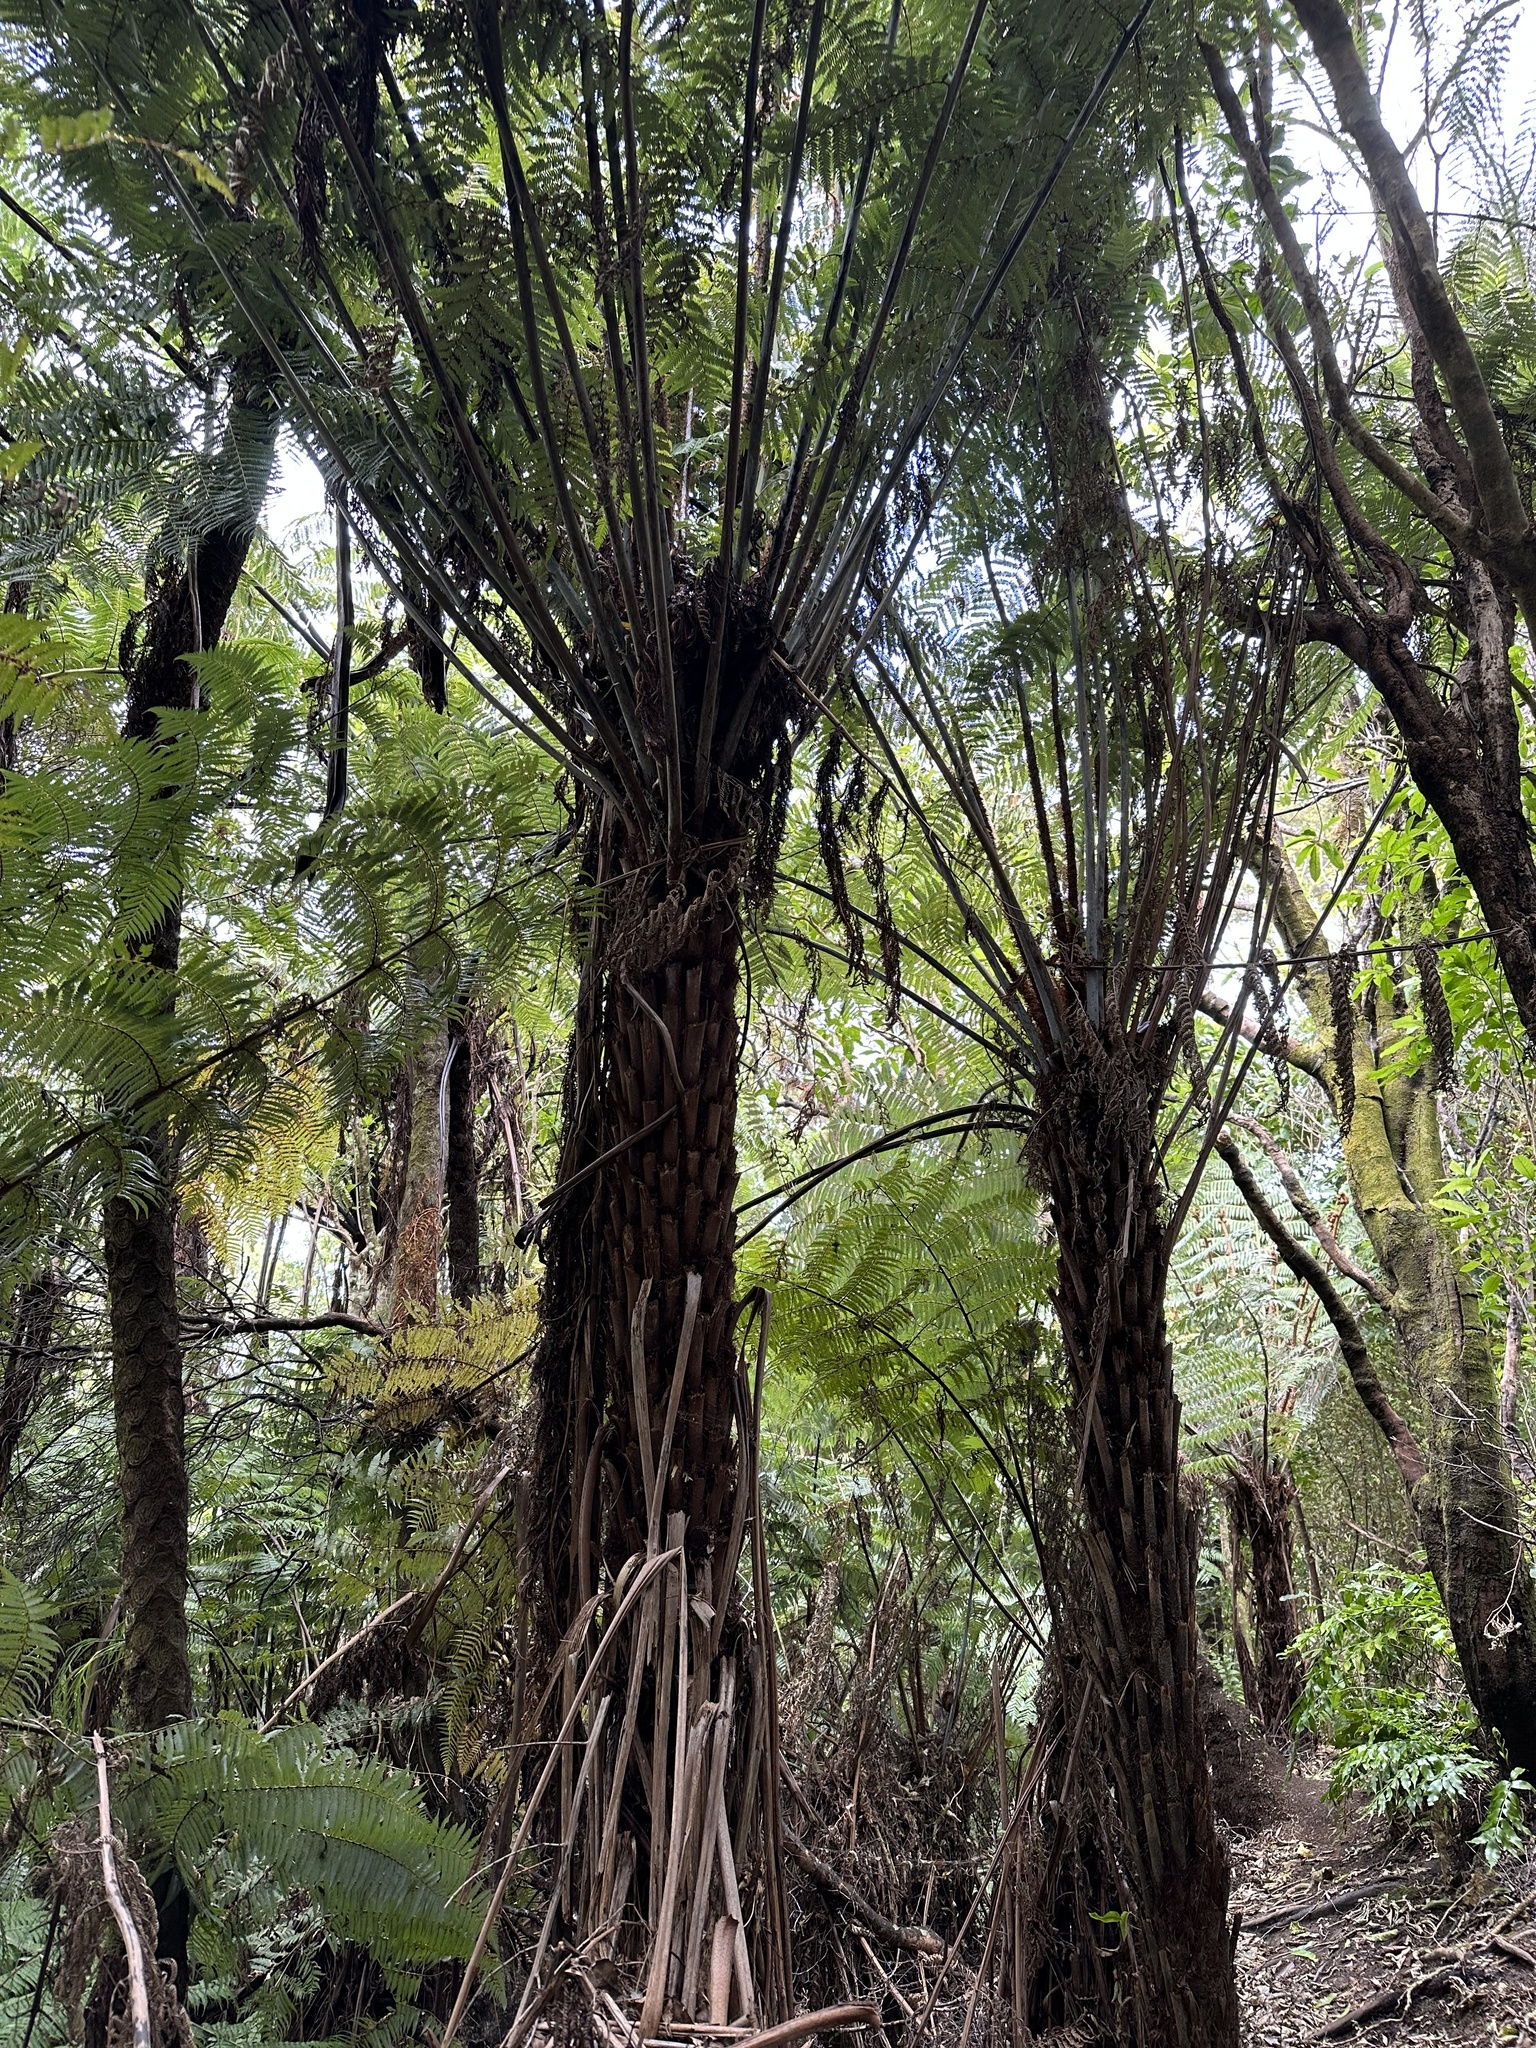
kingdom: Plantae
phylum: Tracheophyta
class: Polypodiopsida
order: Cyatheales
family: Cyatheaceae
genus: Alsophila
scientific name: Alsophila dealbata
